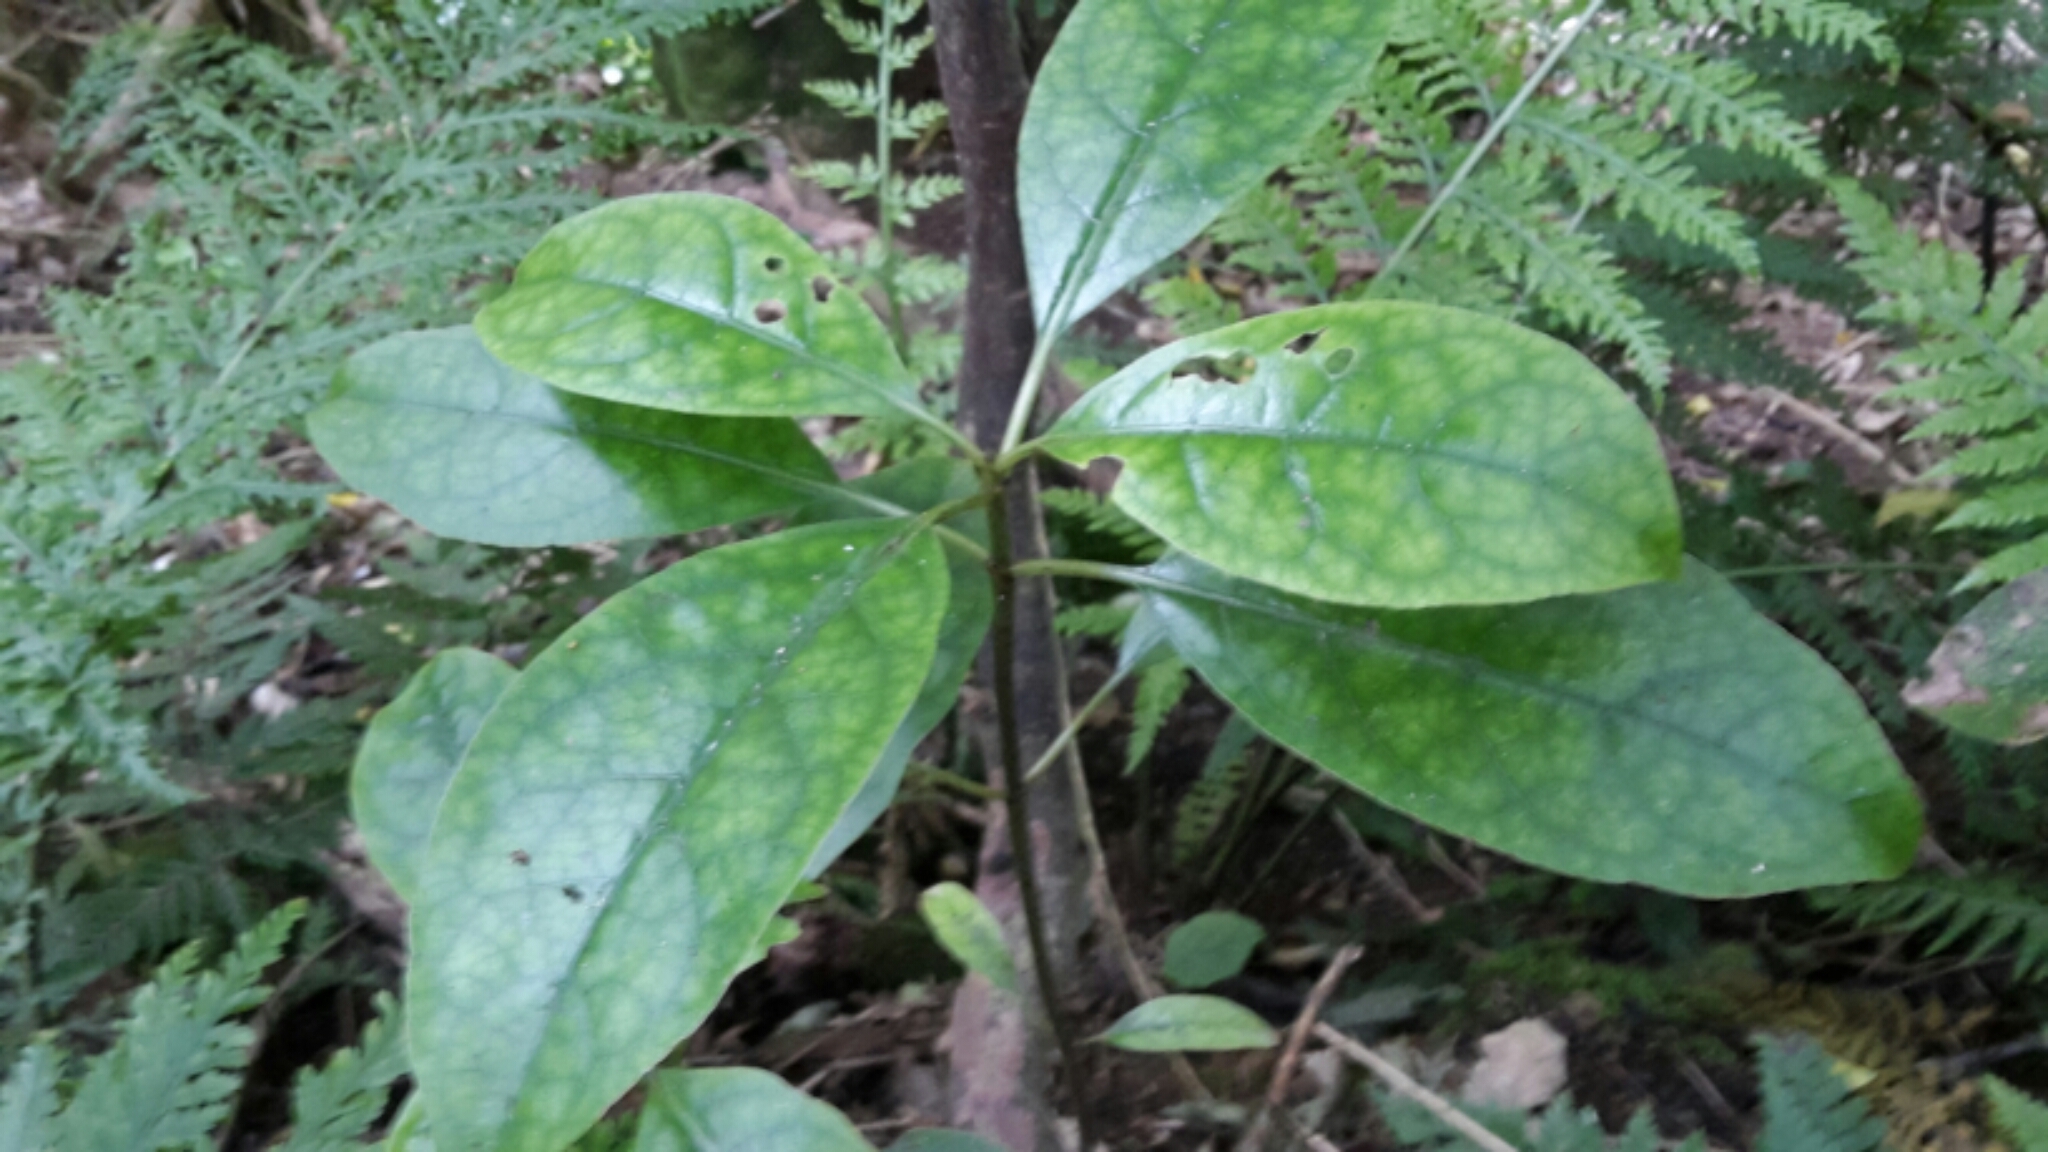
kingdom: Plantae
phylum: Tracheophyta
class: Magnoliopsida
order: Gentianales
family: Rubiaceae
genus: Coprosma
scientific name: Coprosma autumnalis
